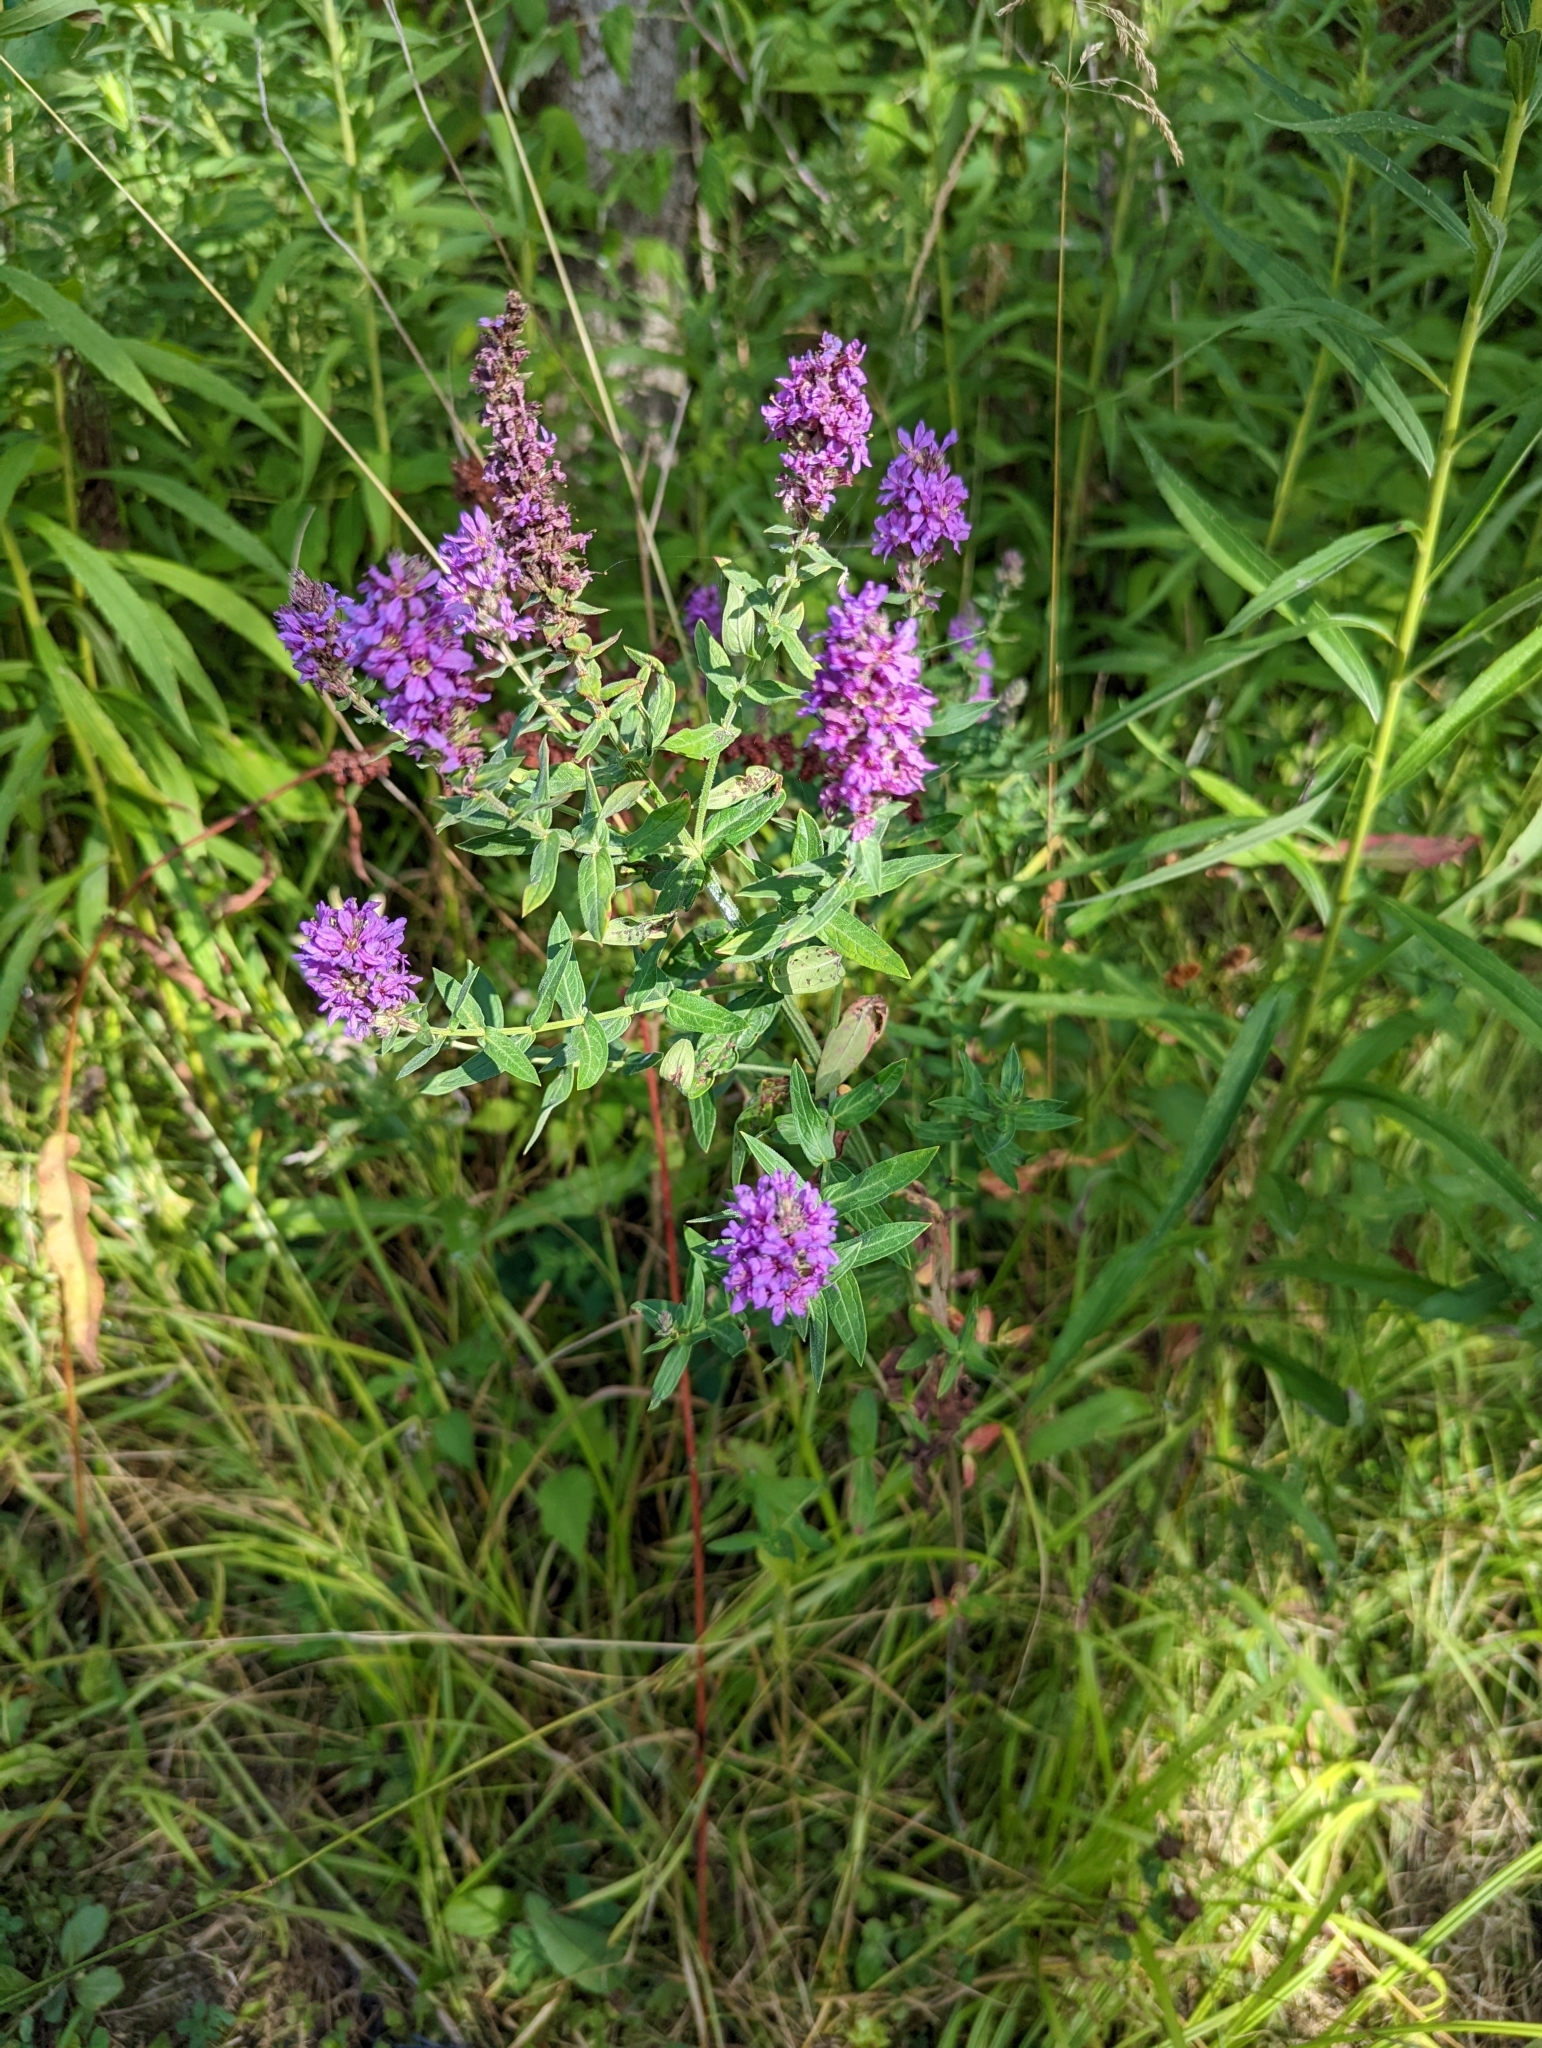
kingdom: Plantae
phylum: Tracheophyta
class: Magnoliopsida
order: Myrtales
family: Lythraceae
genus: Lythrum
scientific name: Lythrum salicaria
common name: Purple loosestrife
